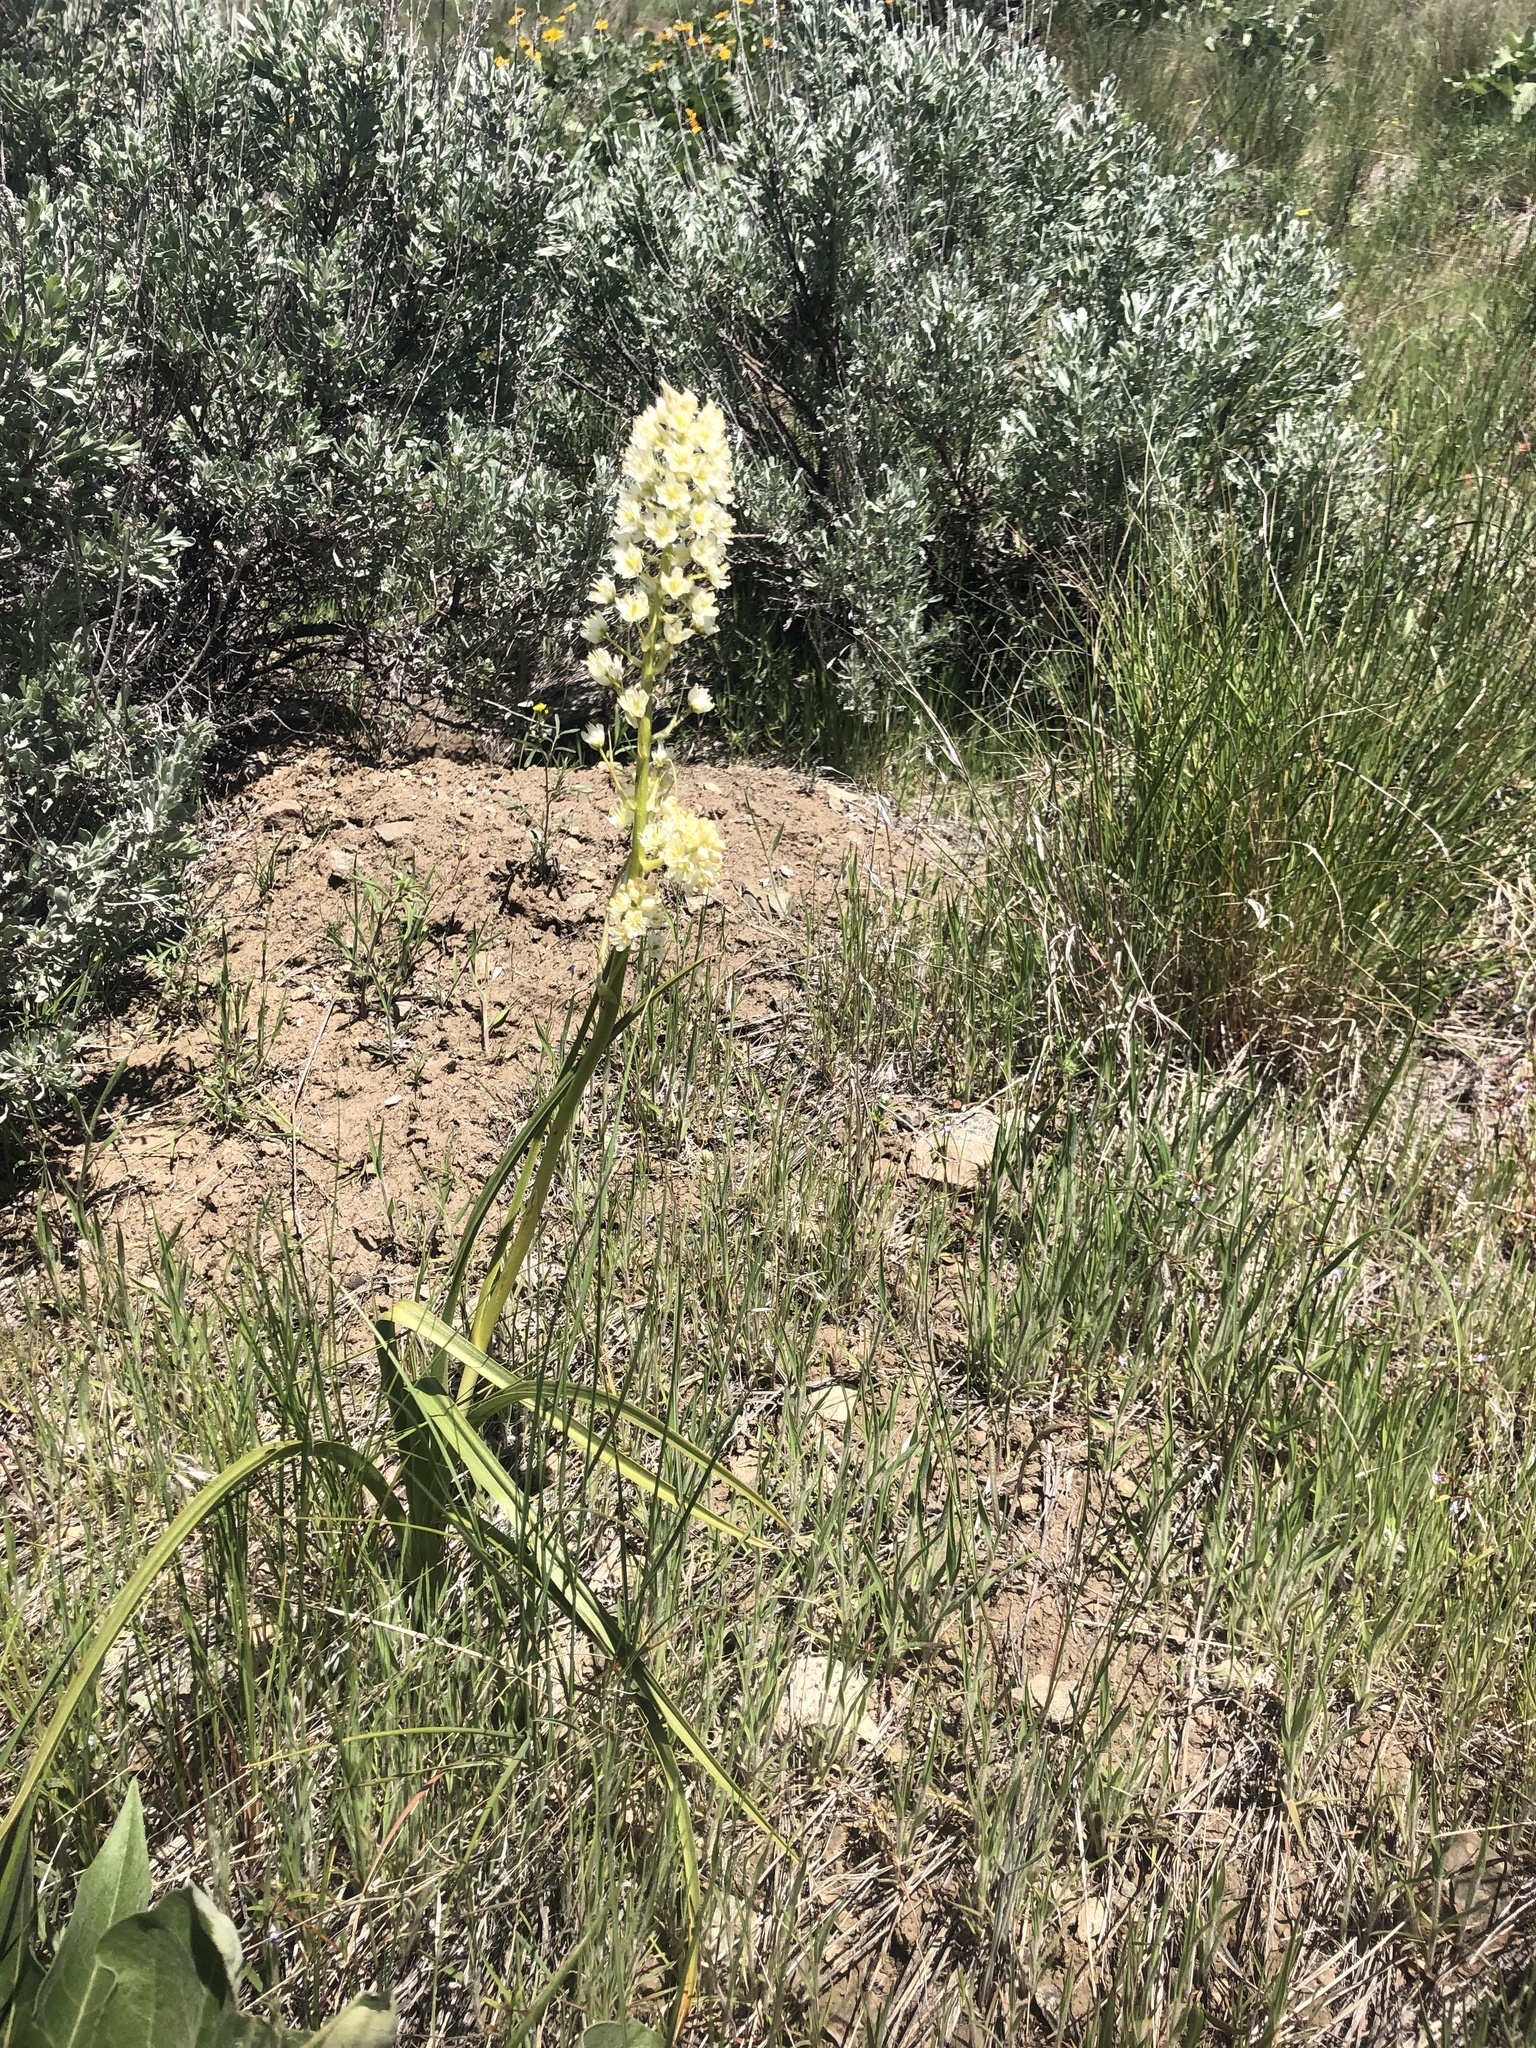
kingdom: Plantae
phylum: Tracheophyta
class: Liliopsida
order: Liliales
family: Melanthiaceae
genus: Toxicoscordion
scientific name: Toxicoscordion venenosum
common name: Meadow death camas
